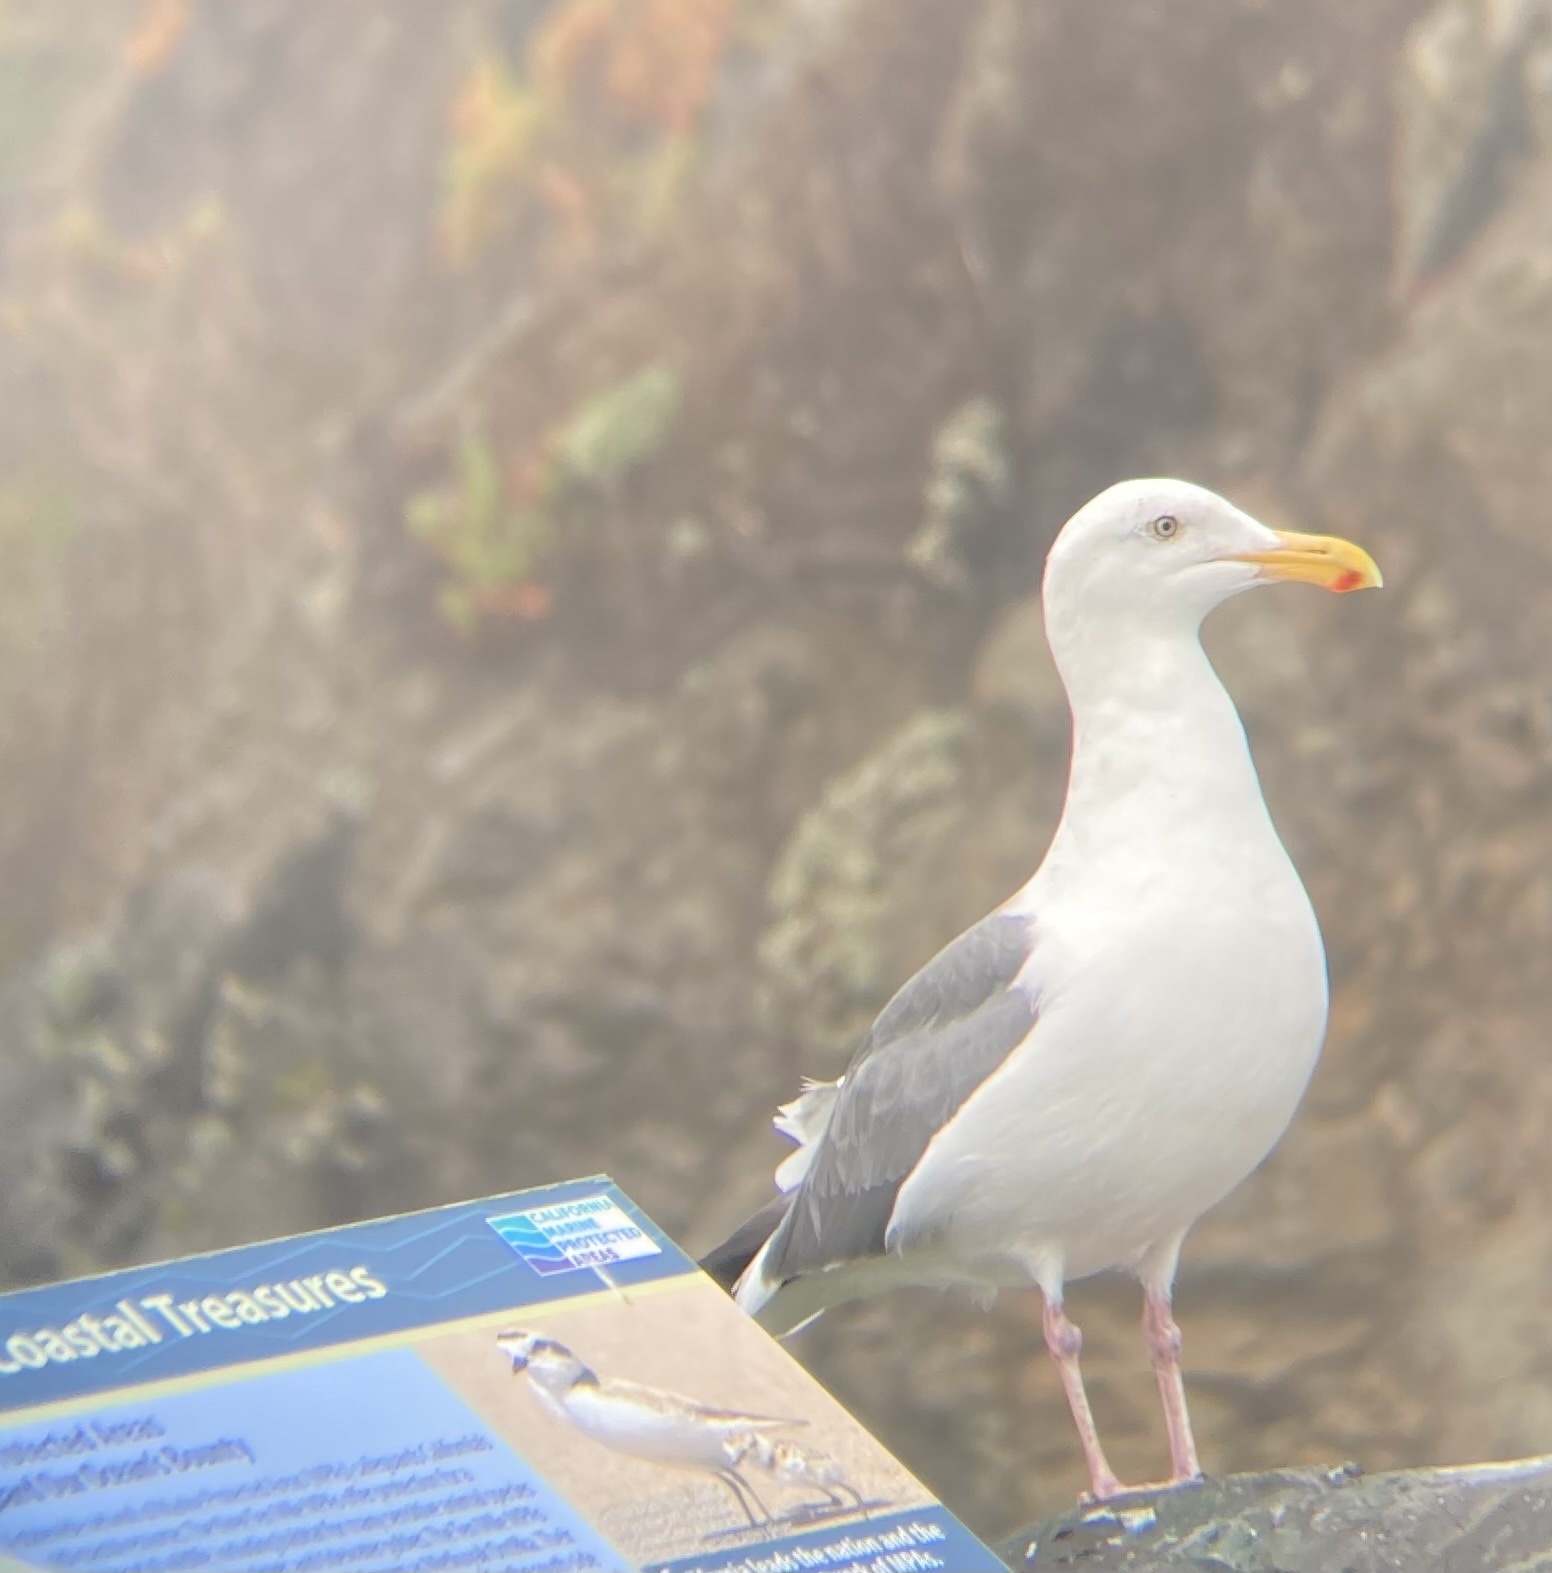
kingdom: Animalia
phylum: Chordata
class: Aves
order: Charadriiformes
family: Laridae
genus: Larus
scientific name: Larus occidentalis
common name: Western gull
